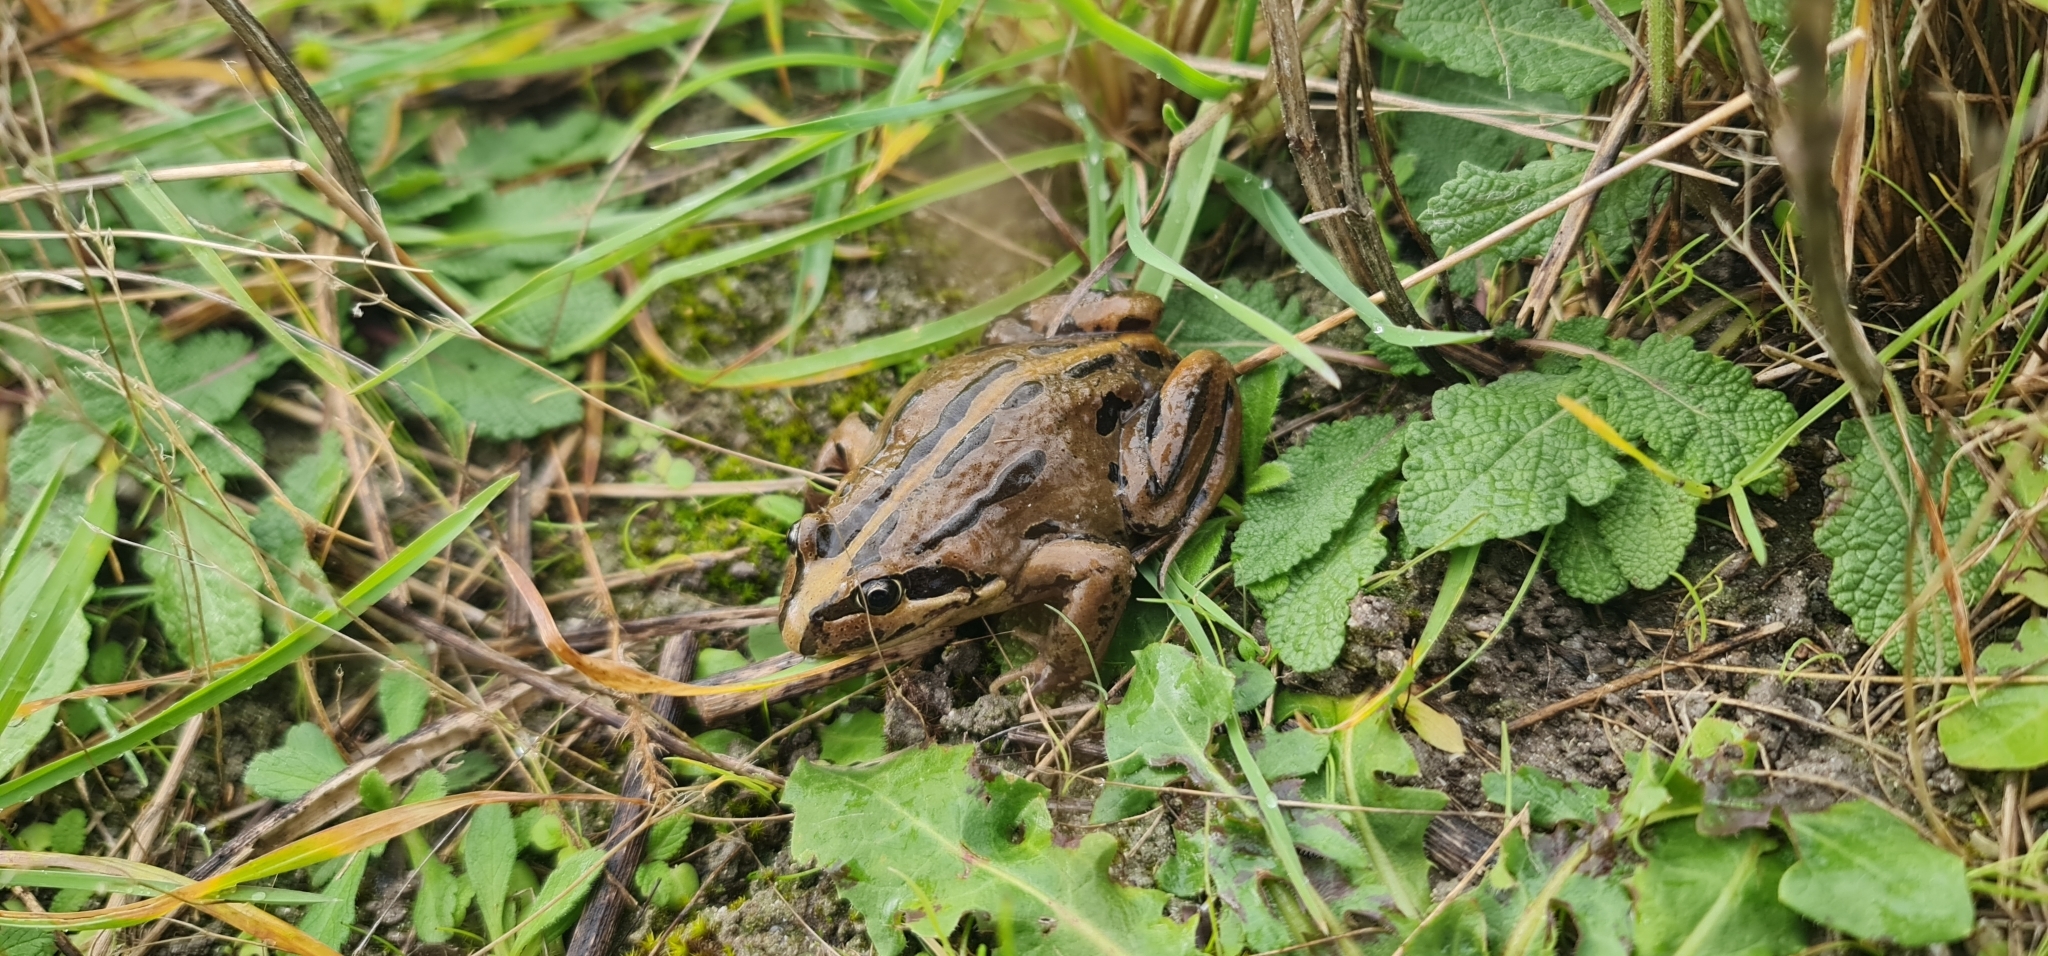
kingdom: Animalia
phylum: Chordata
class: Amphibia
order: Anura
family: Limnodynastidae
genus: Limnodynastes
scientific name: Limnodynastes peronii
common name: Brown frog
